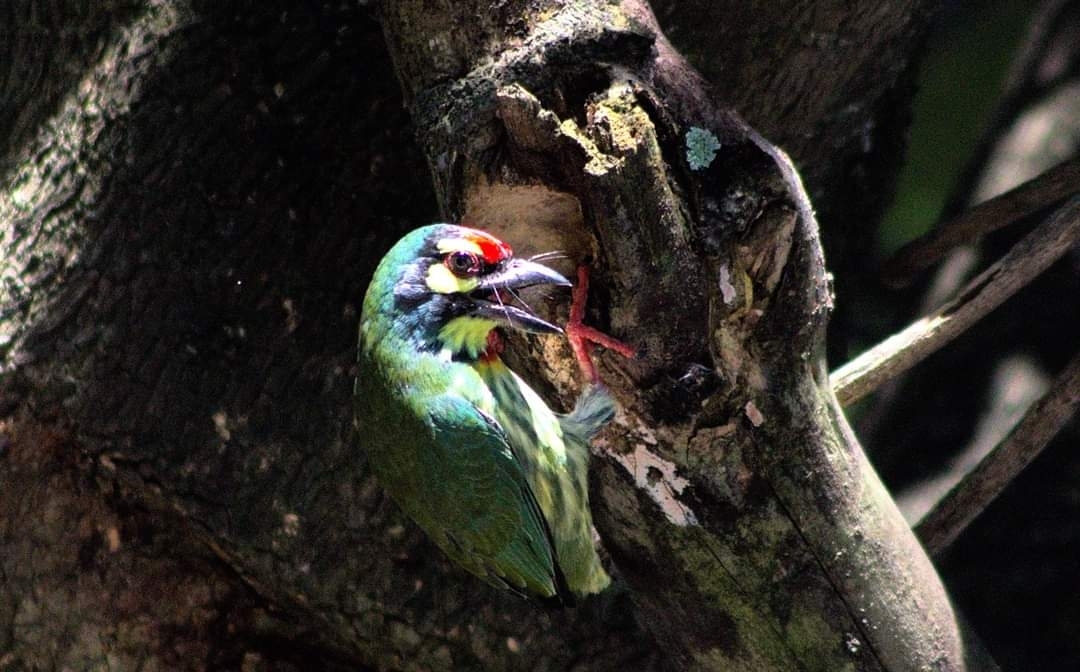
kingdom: Animalia
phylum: Chordata
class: Aves
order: Piciformes
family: Megalaimidae
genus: Psilopogon
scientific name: Psilopogon haemacephalus
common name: Coppersmith barbet
